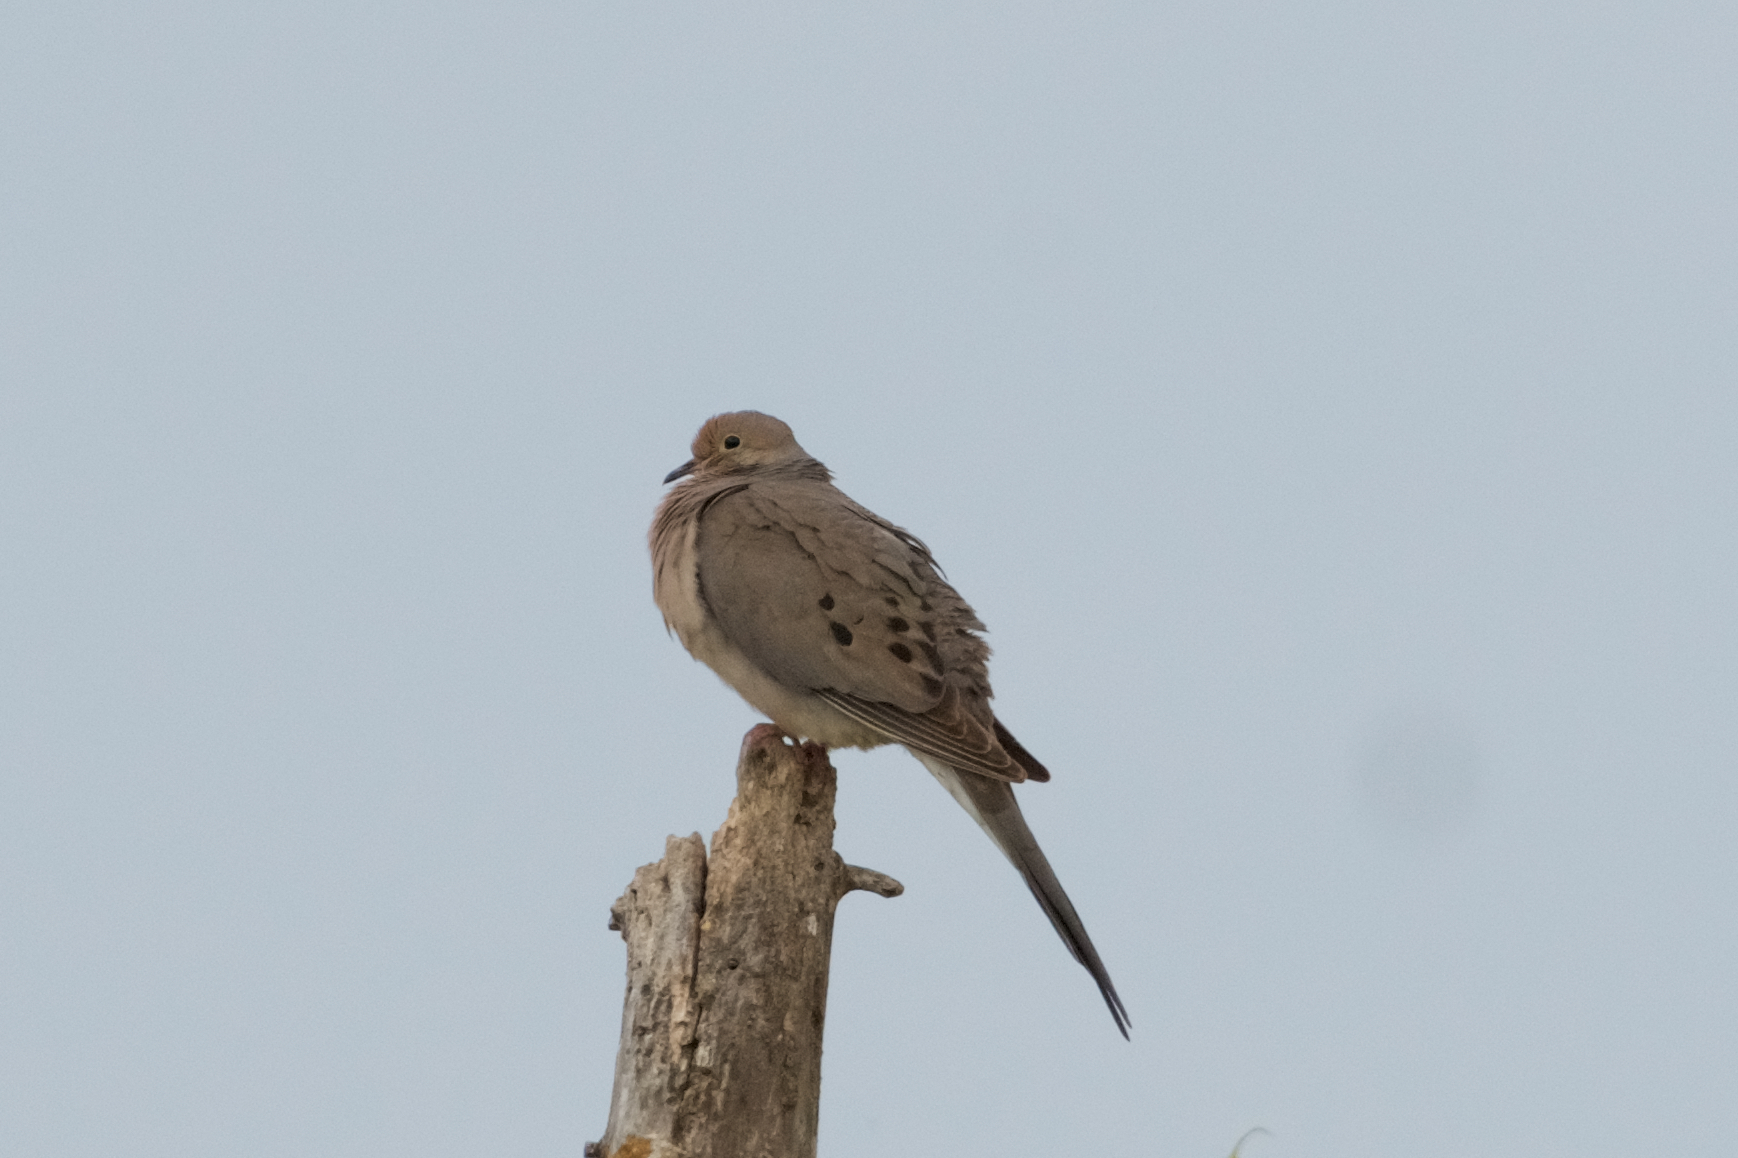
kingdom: Animalia
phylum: Chordata
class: Aves
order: Columbiformes
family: Columbidae
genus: Zenaida
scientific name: Zenaida macroura
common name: Mourning dove
